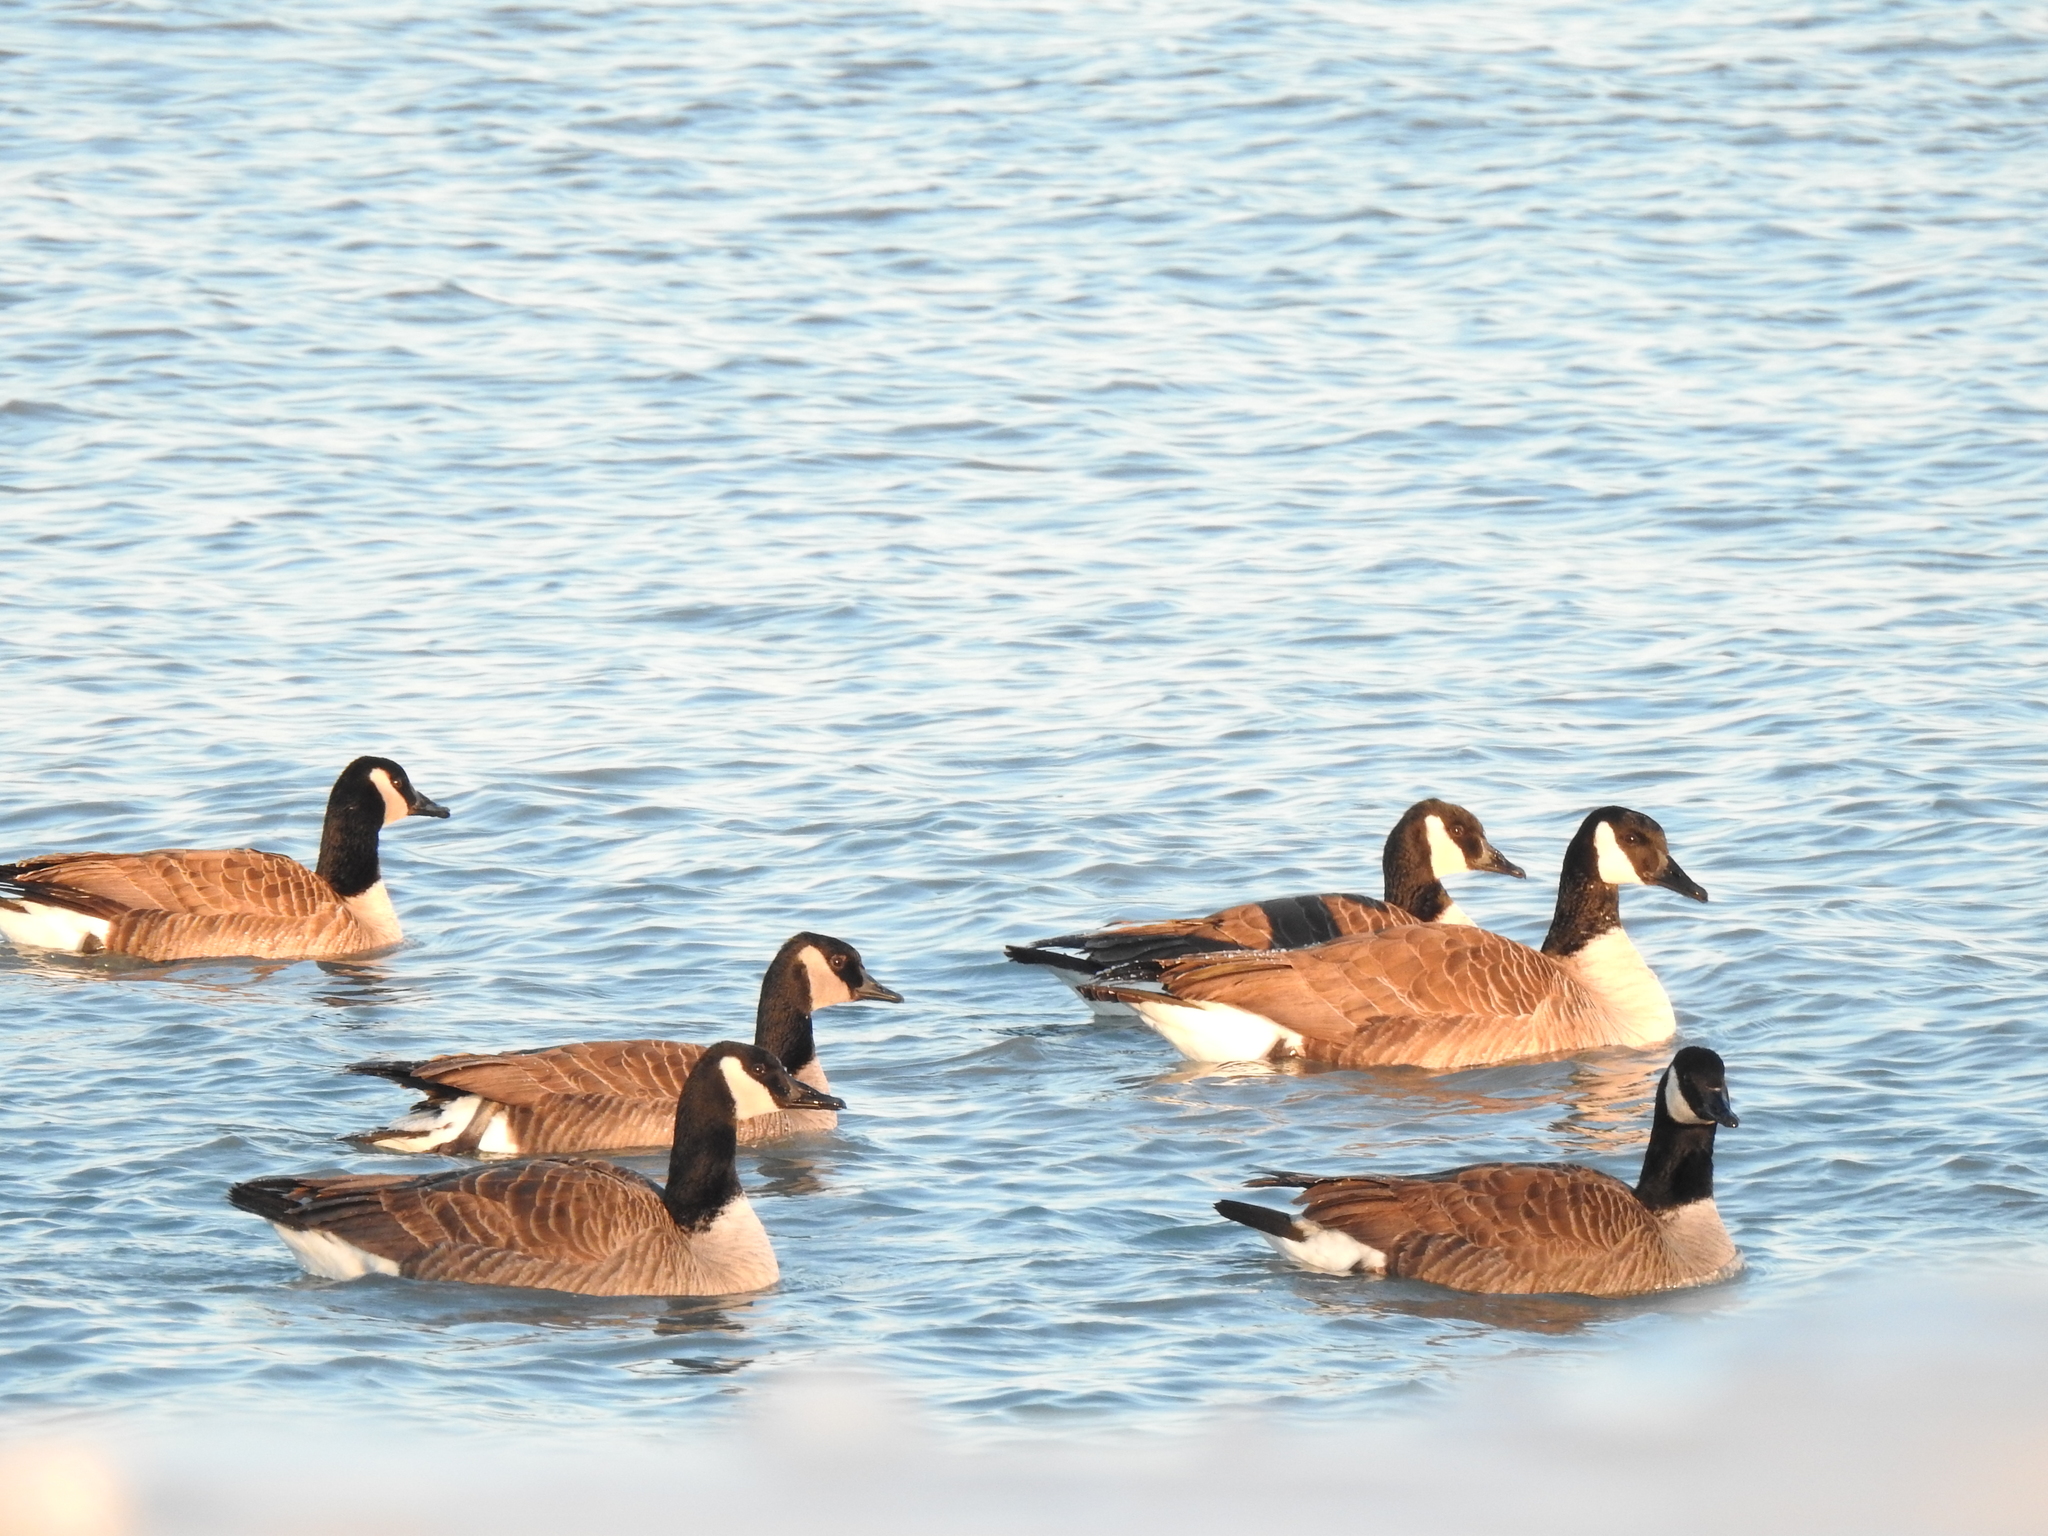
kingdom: Animalia
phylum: Chordata
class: Aves
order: Anseriformes
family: Anatidae
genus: Branta
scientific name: Branta canadensis
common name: Canada goose
